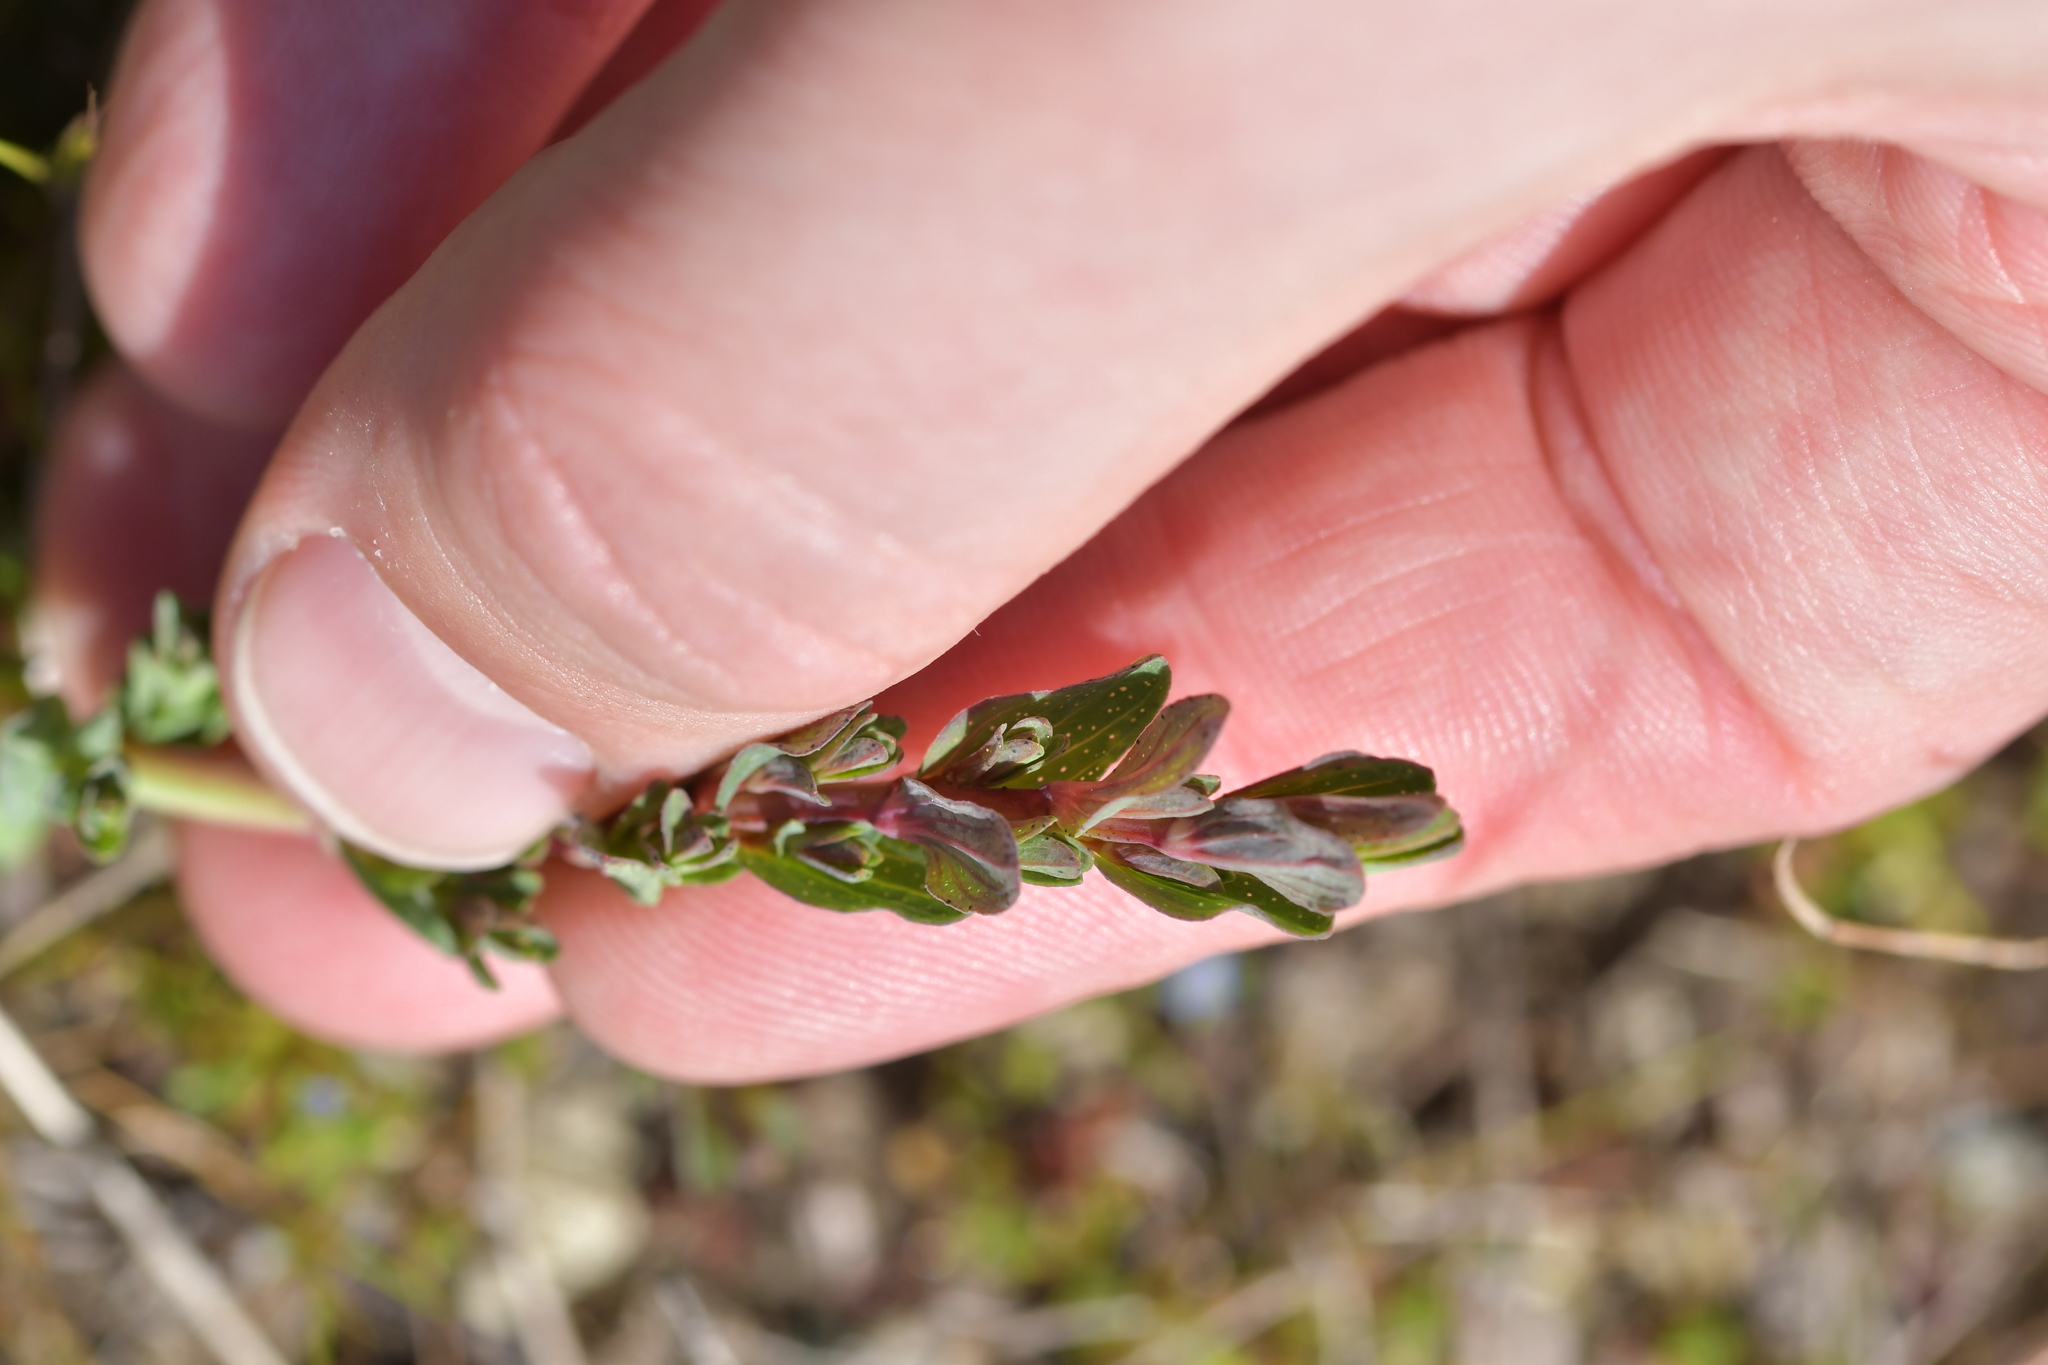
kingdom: Plantae
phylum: Tracheophyta
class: Magnoliopsida
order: Malpighiales
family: Hypericaceae
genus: Hypericum
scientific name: Hypericum perforatum
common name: Common st. johnswort
